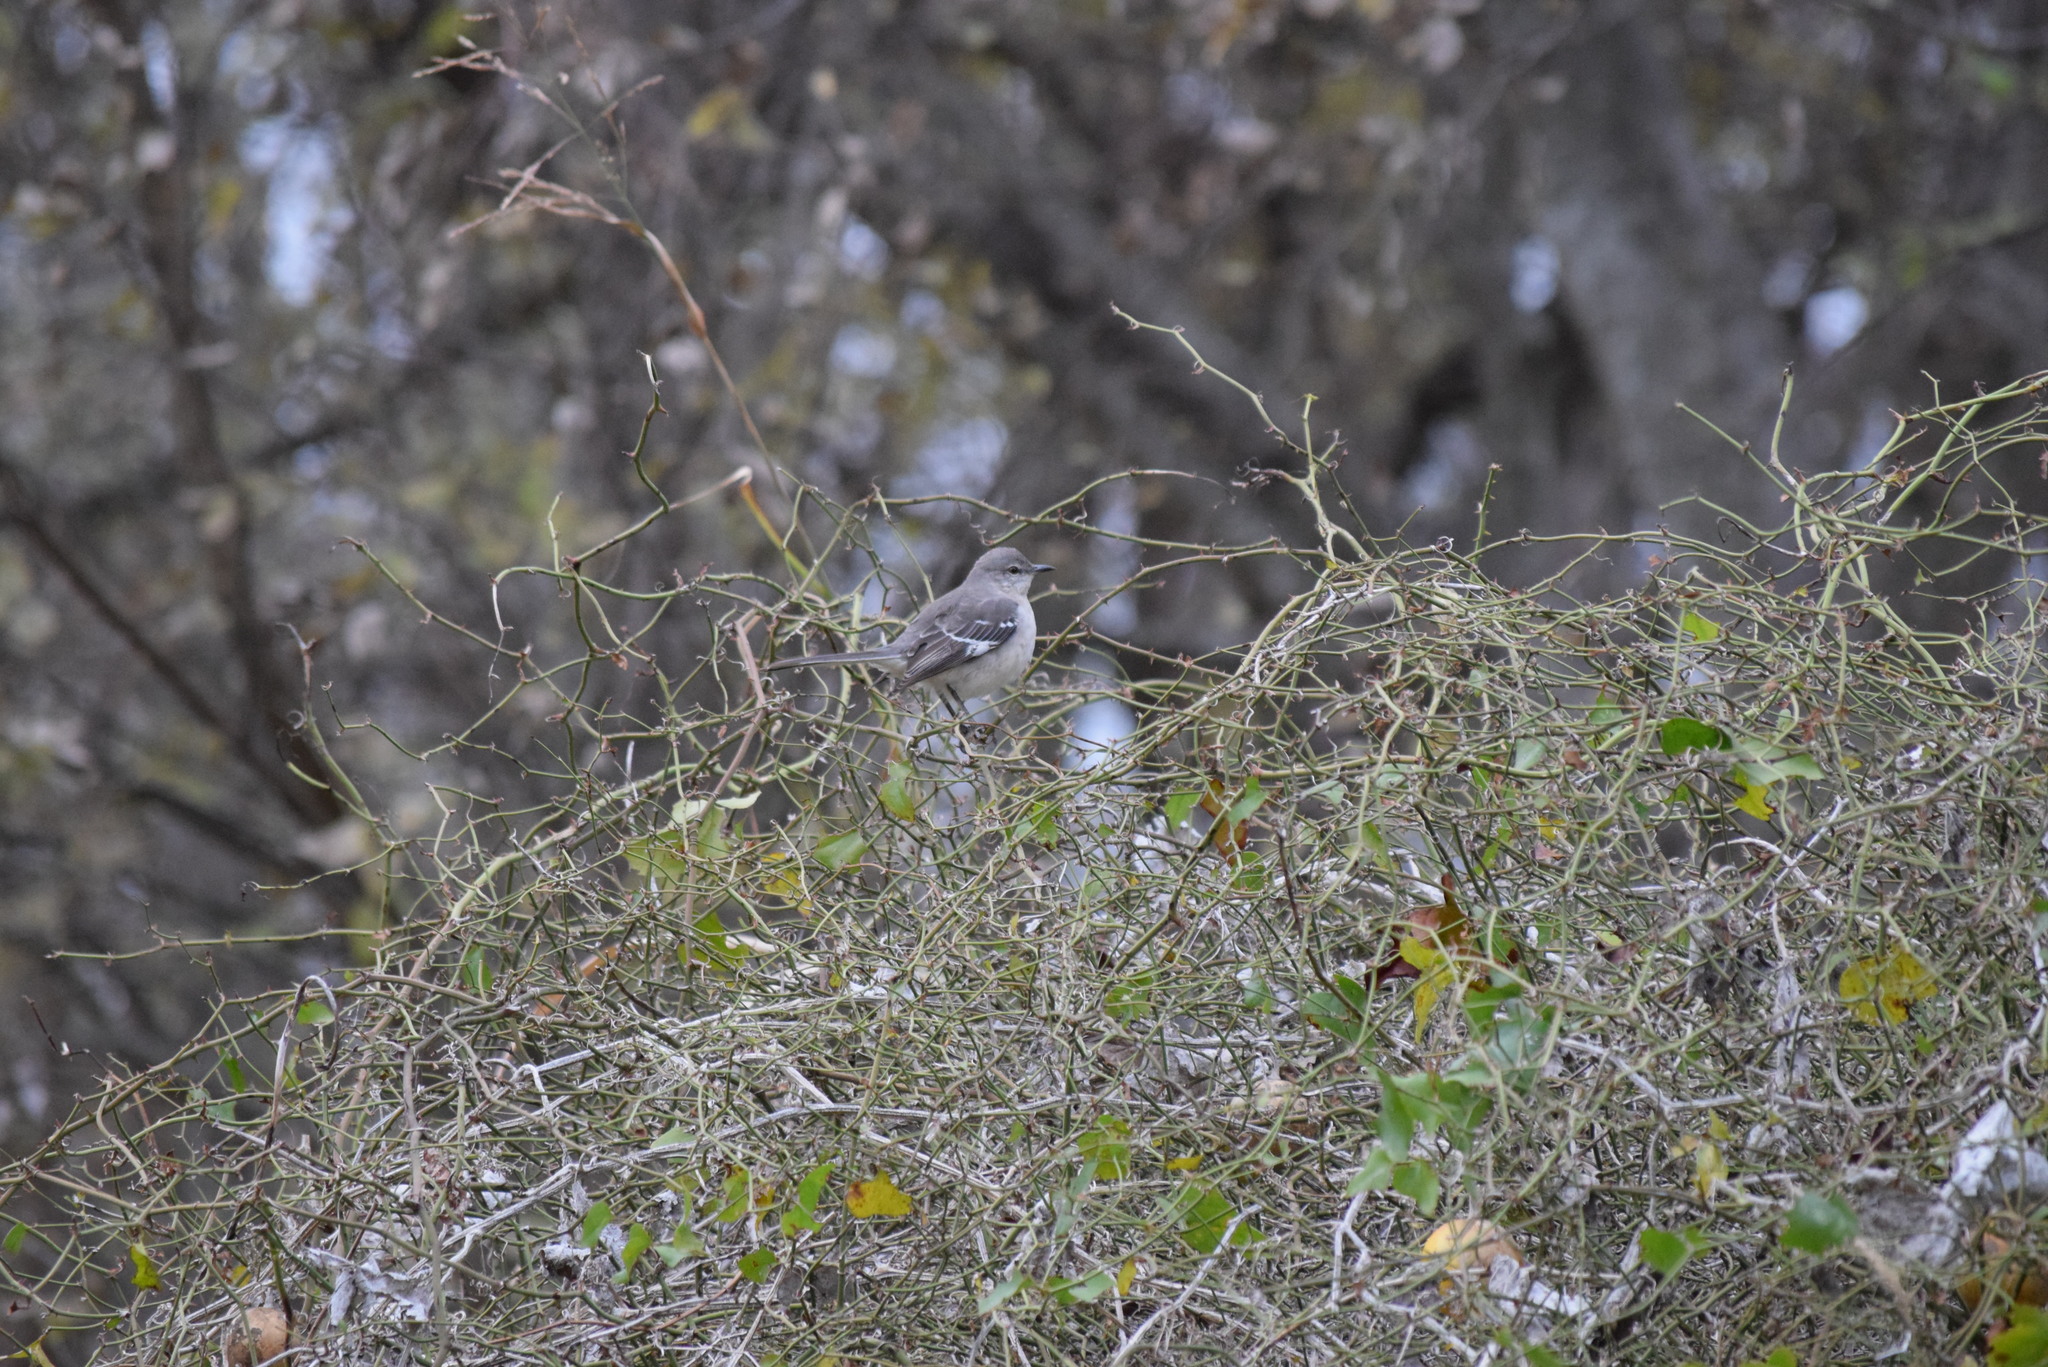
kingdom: Animalia
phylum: Chordata
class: Aves
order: Passeriformes
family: Mimidae
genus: Mimus
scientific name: Mimus polyglottos
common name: Northern mockingbird
